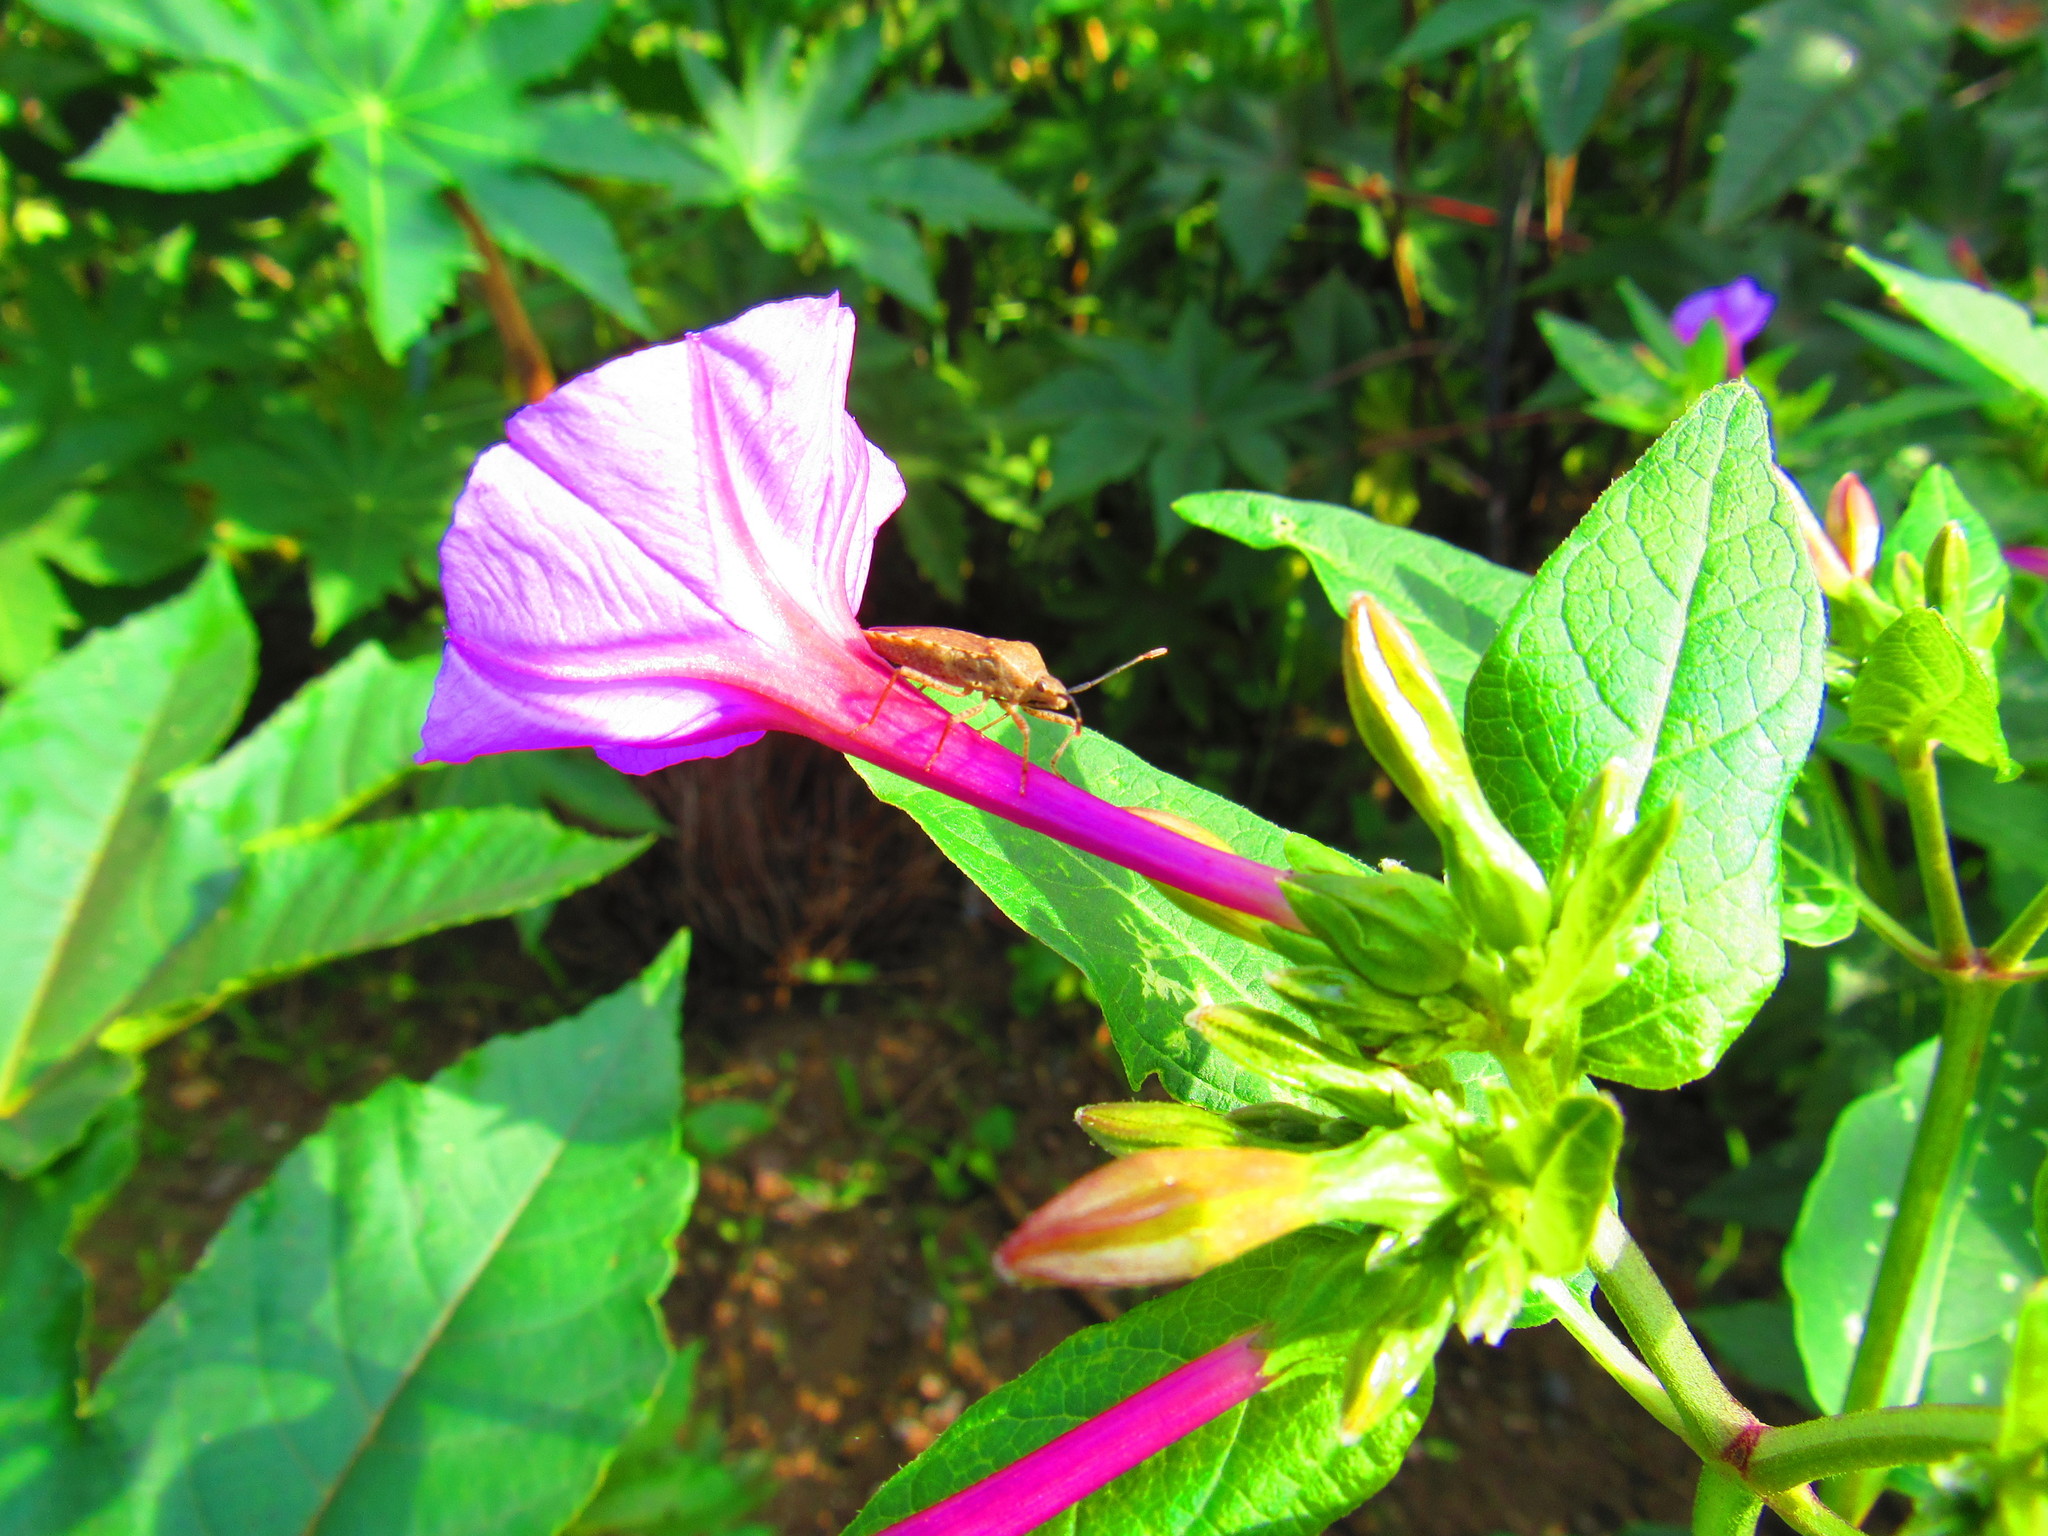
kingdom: Plantae
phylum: Tracheophyta
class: Magnoliopsida
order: Caryophyllales
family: Nyctaginaceae
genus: Mirabilis
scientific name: Mirabilis jalapa
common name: Marvel-of-peru
